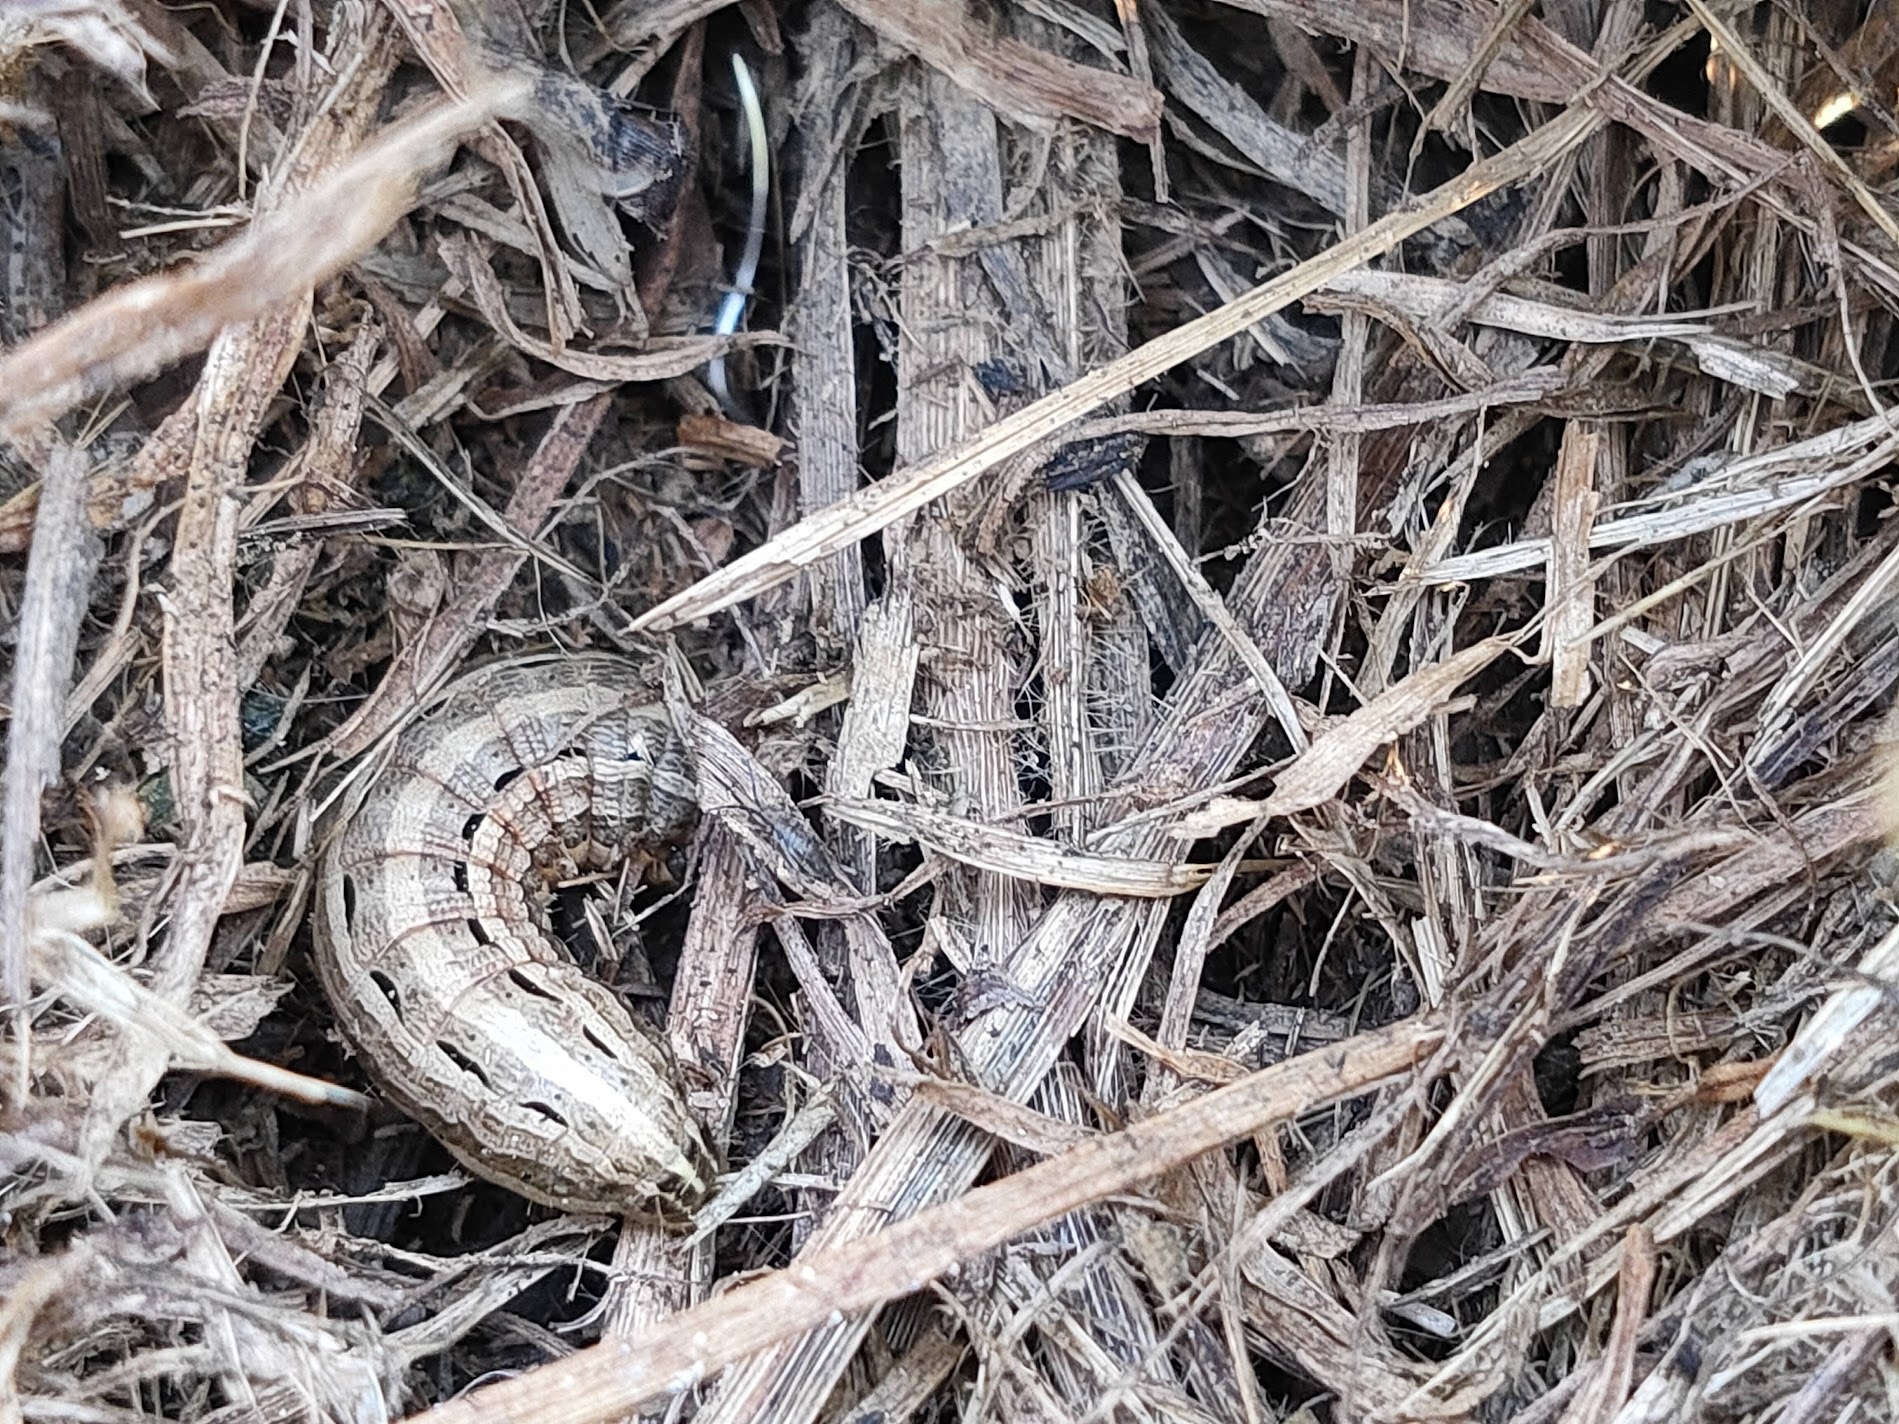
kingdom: Animalia
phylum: Arthropoda
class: Insecta
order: Lepidoptera
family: Noctuidae
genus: Spodoptera
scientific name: Spodoptera depravata
